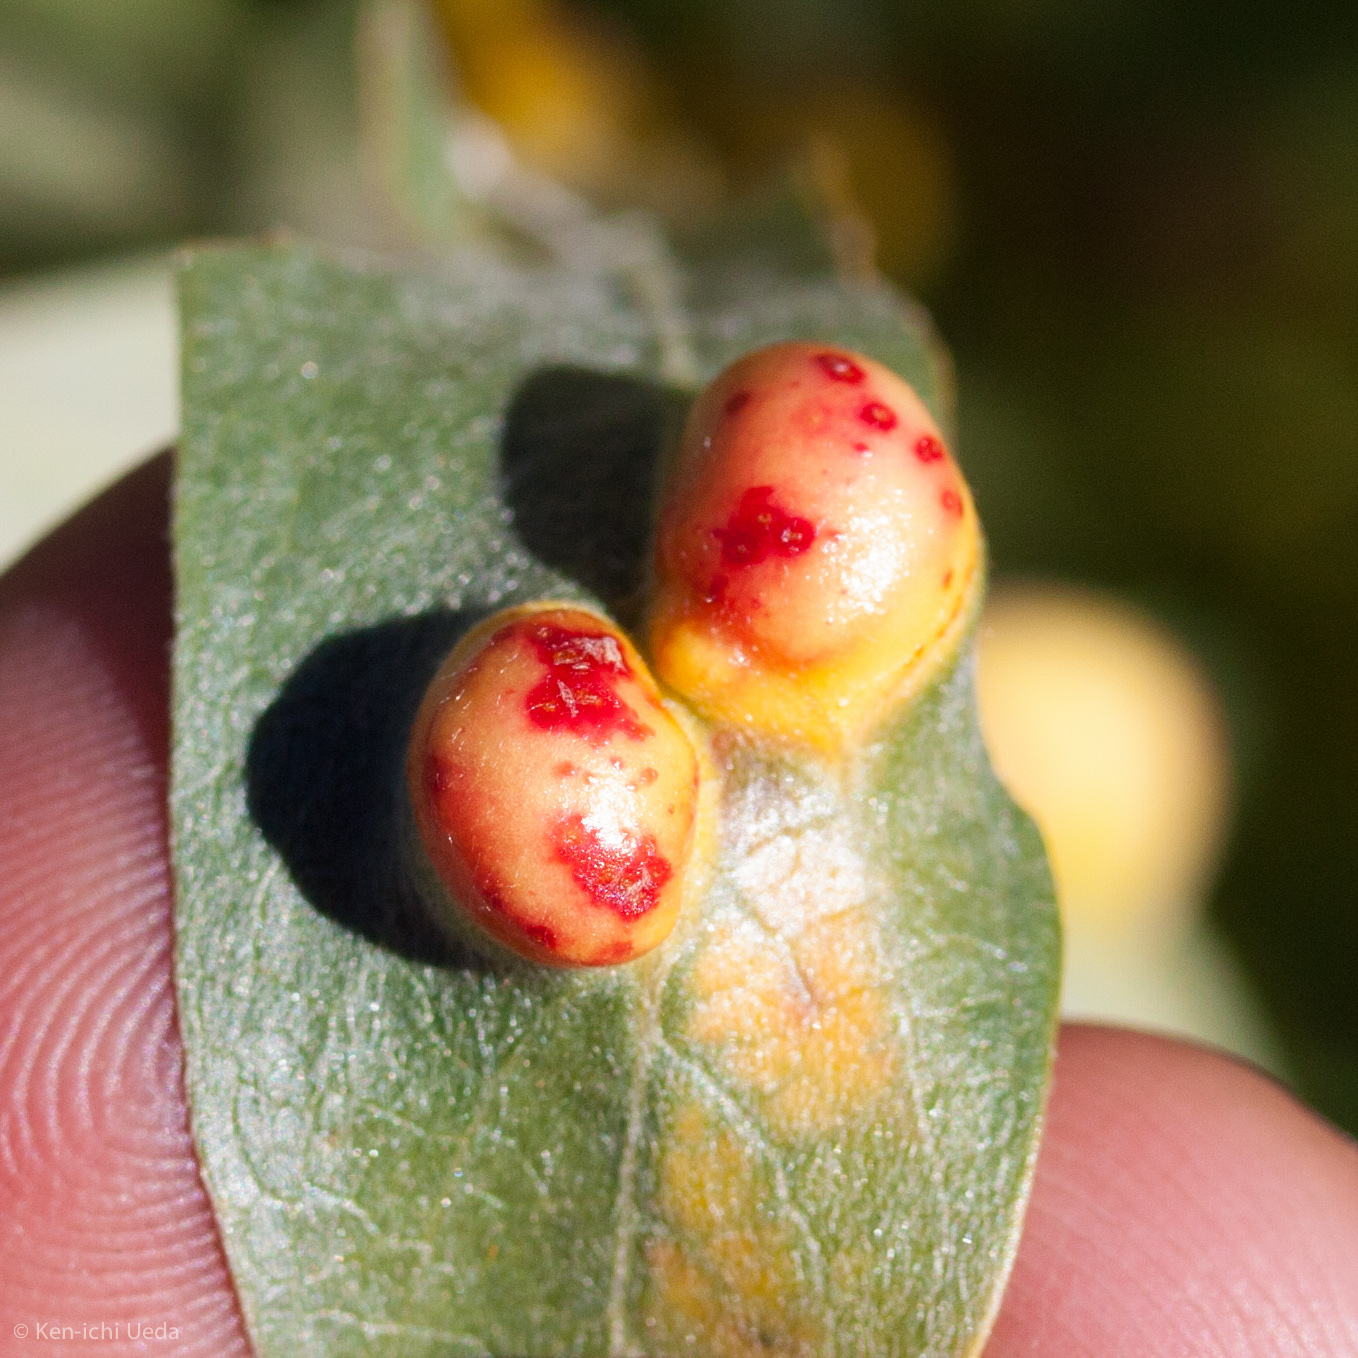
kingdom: Animalia
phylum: Arthropoda
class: Insecta
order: Hymenoptera
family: Tenthredinidae
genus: Euura
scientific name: Euura
